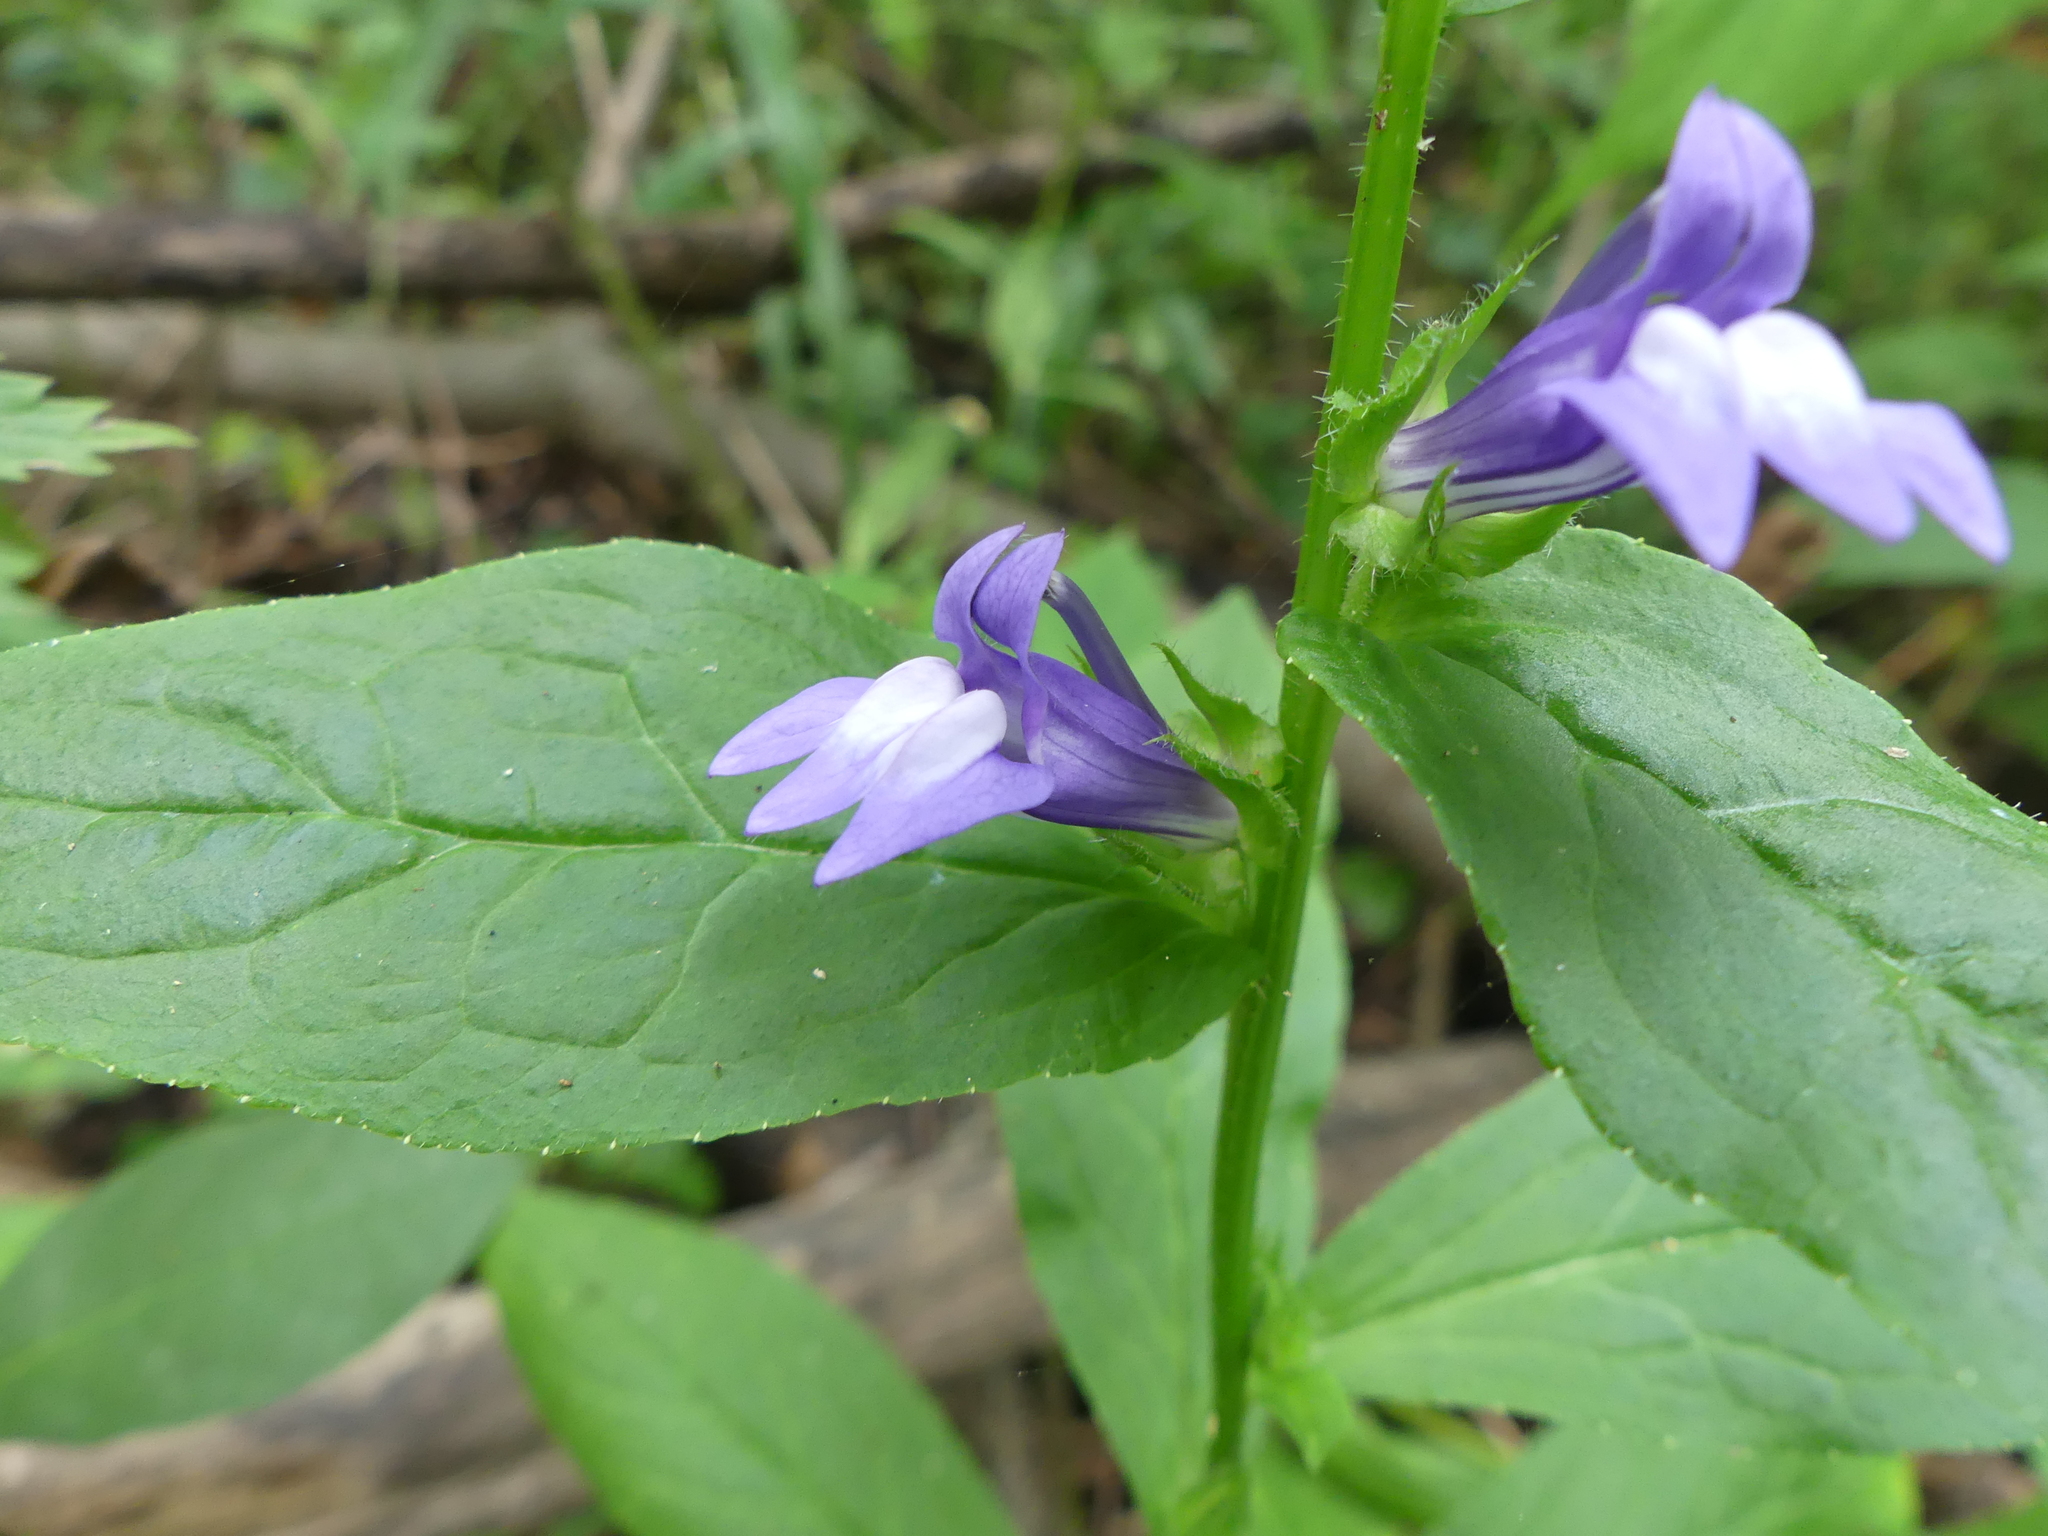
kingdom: Plantae
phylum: Tracheophyta
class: Magnoliopsida
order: Asterales
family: Campanulaceae
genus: Lobelia
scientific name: Lobelia siphilitica
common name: Great lobelia
